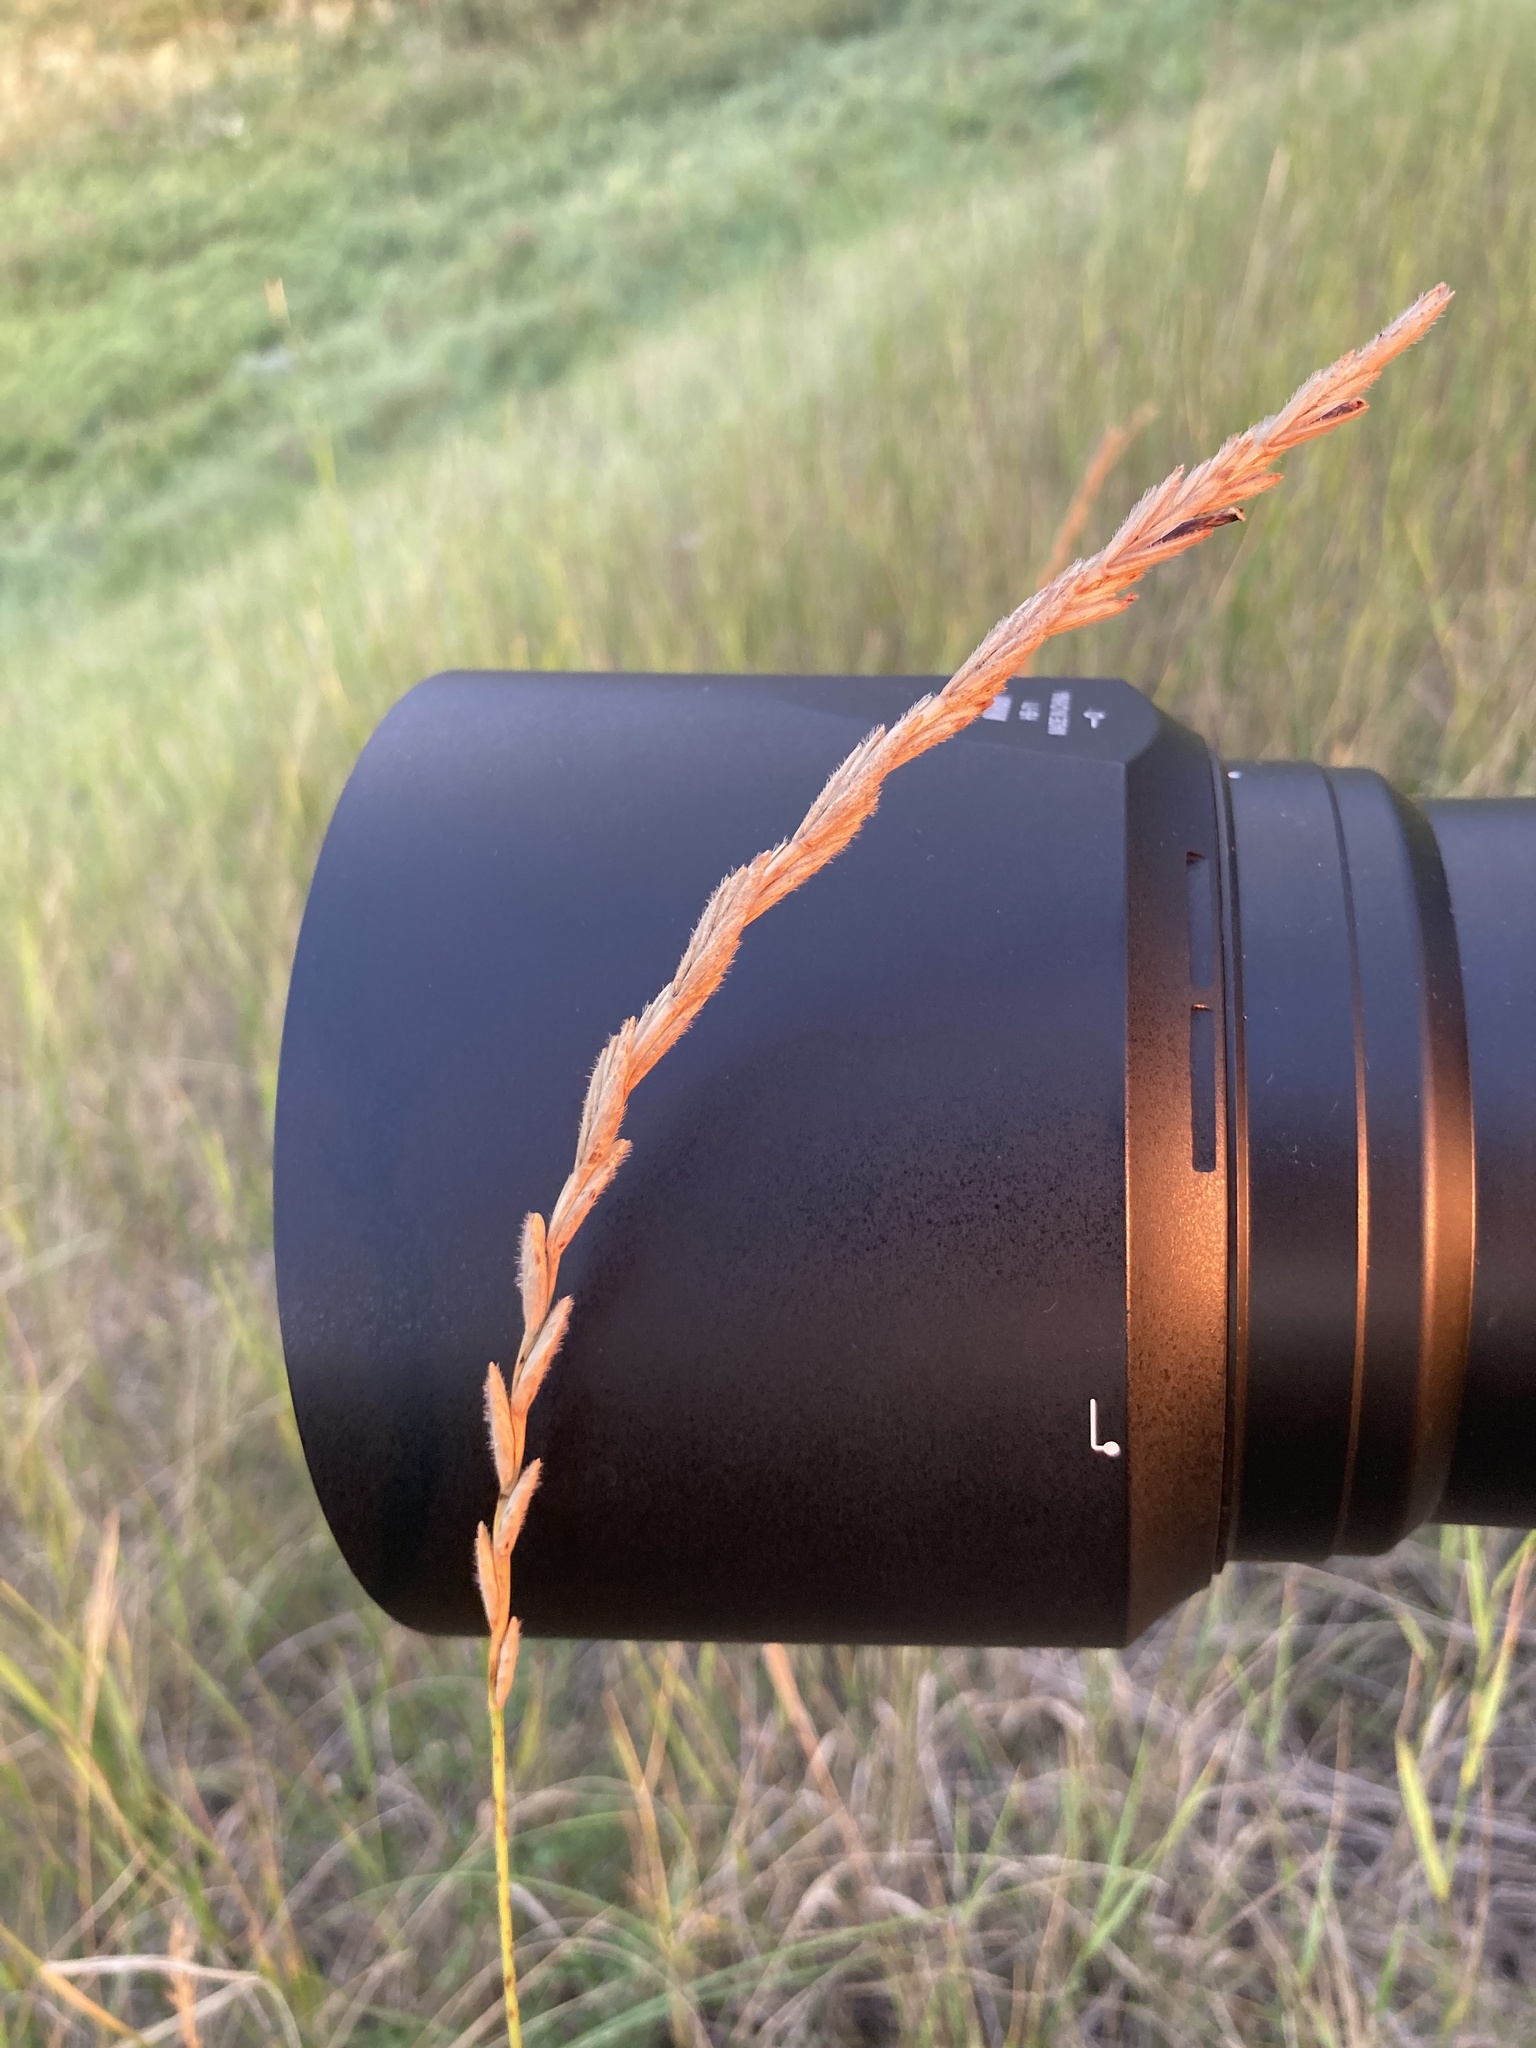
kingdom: Plantae
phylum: Tracheophyta
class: Liliopsida
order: Poales
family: Poaceae
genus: Thinopyrum
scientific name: Thinopyrum intermedium
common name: Intermediate wheatgrass
